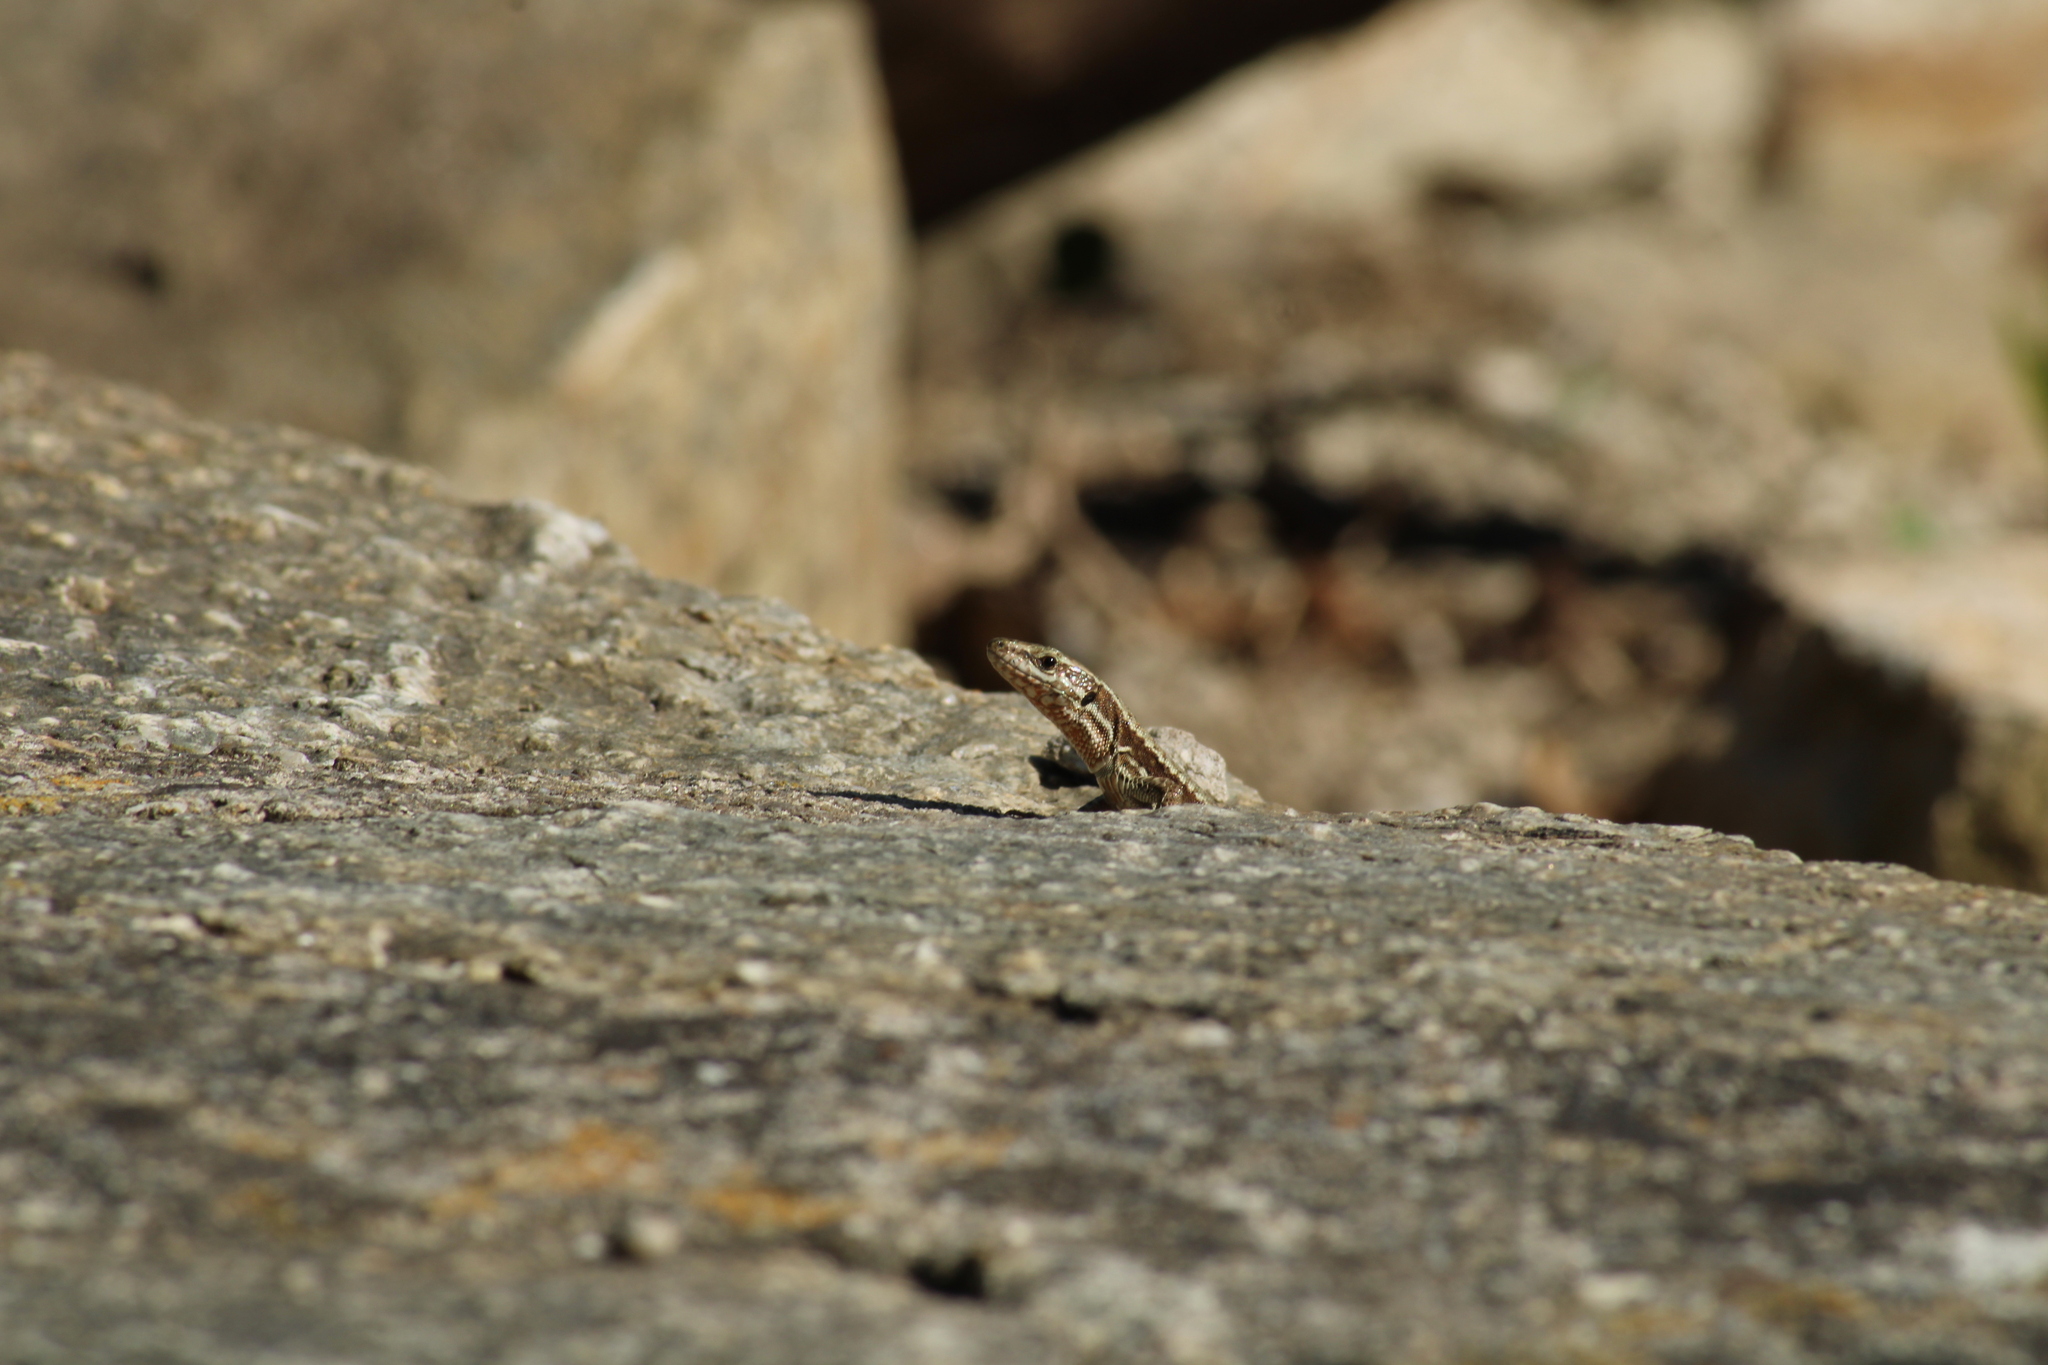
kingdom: Animalia
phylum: Chordata
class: Squamata
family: Lacertidae
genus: Podarcis
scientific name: Podarcis muralis
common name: Common wall lizard
